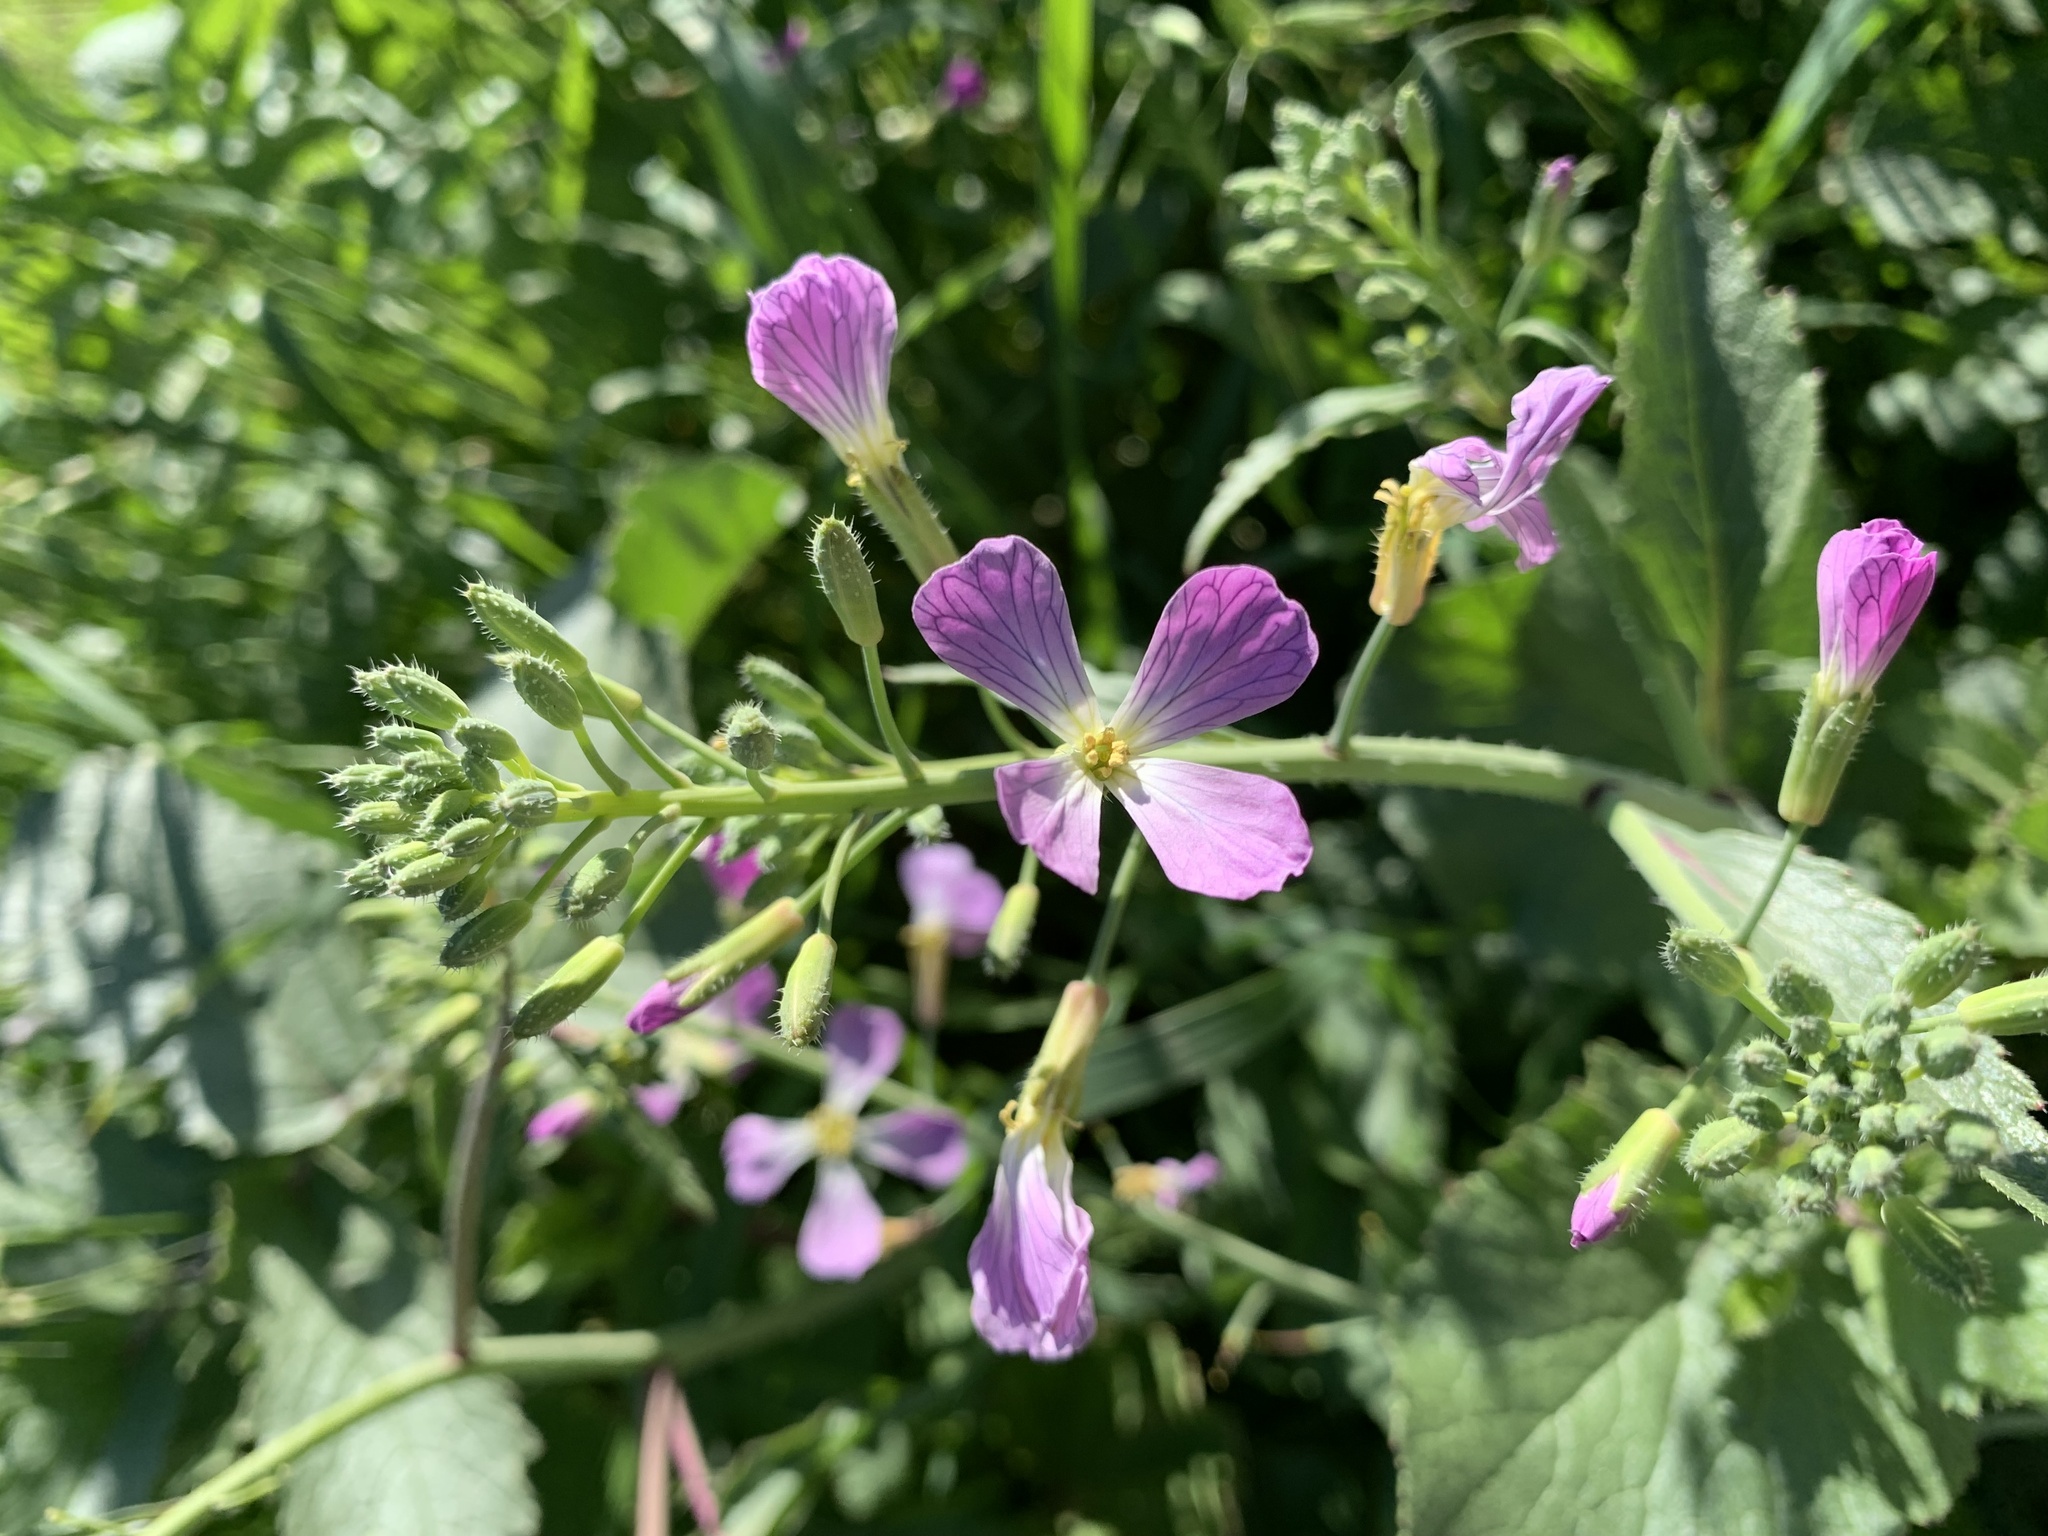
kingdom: Plantae
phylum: Tracheophyta
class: Magnoliopsida
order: Brassicales
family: Brassicaceae
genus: Raphanus
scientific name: Raphanus sativus
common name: Cultivated radish
